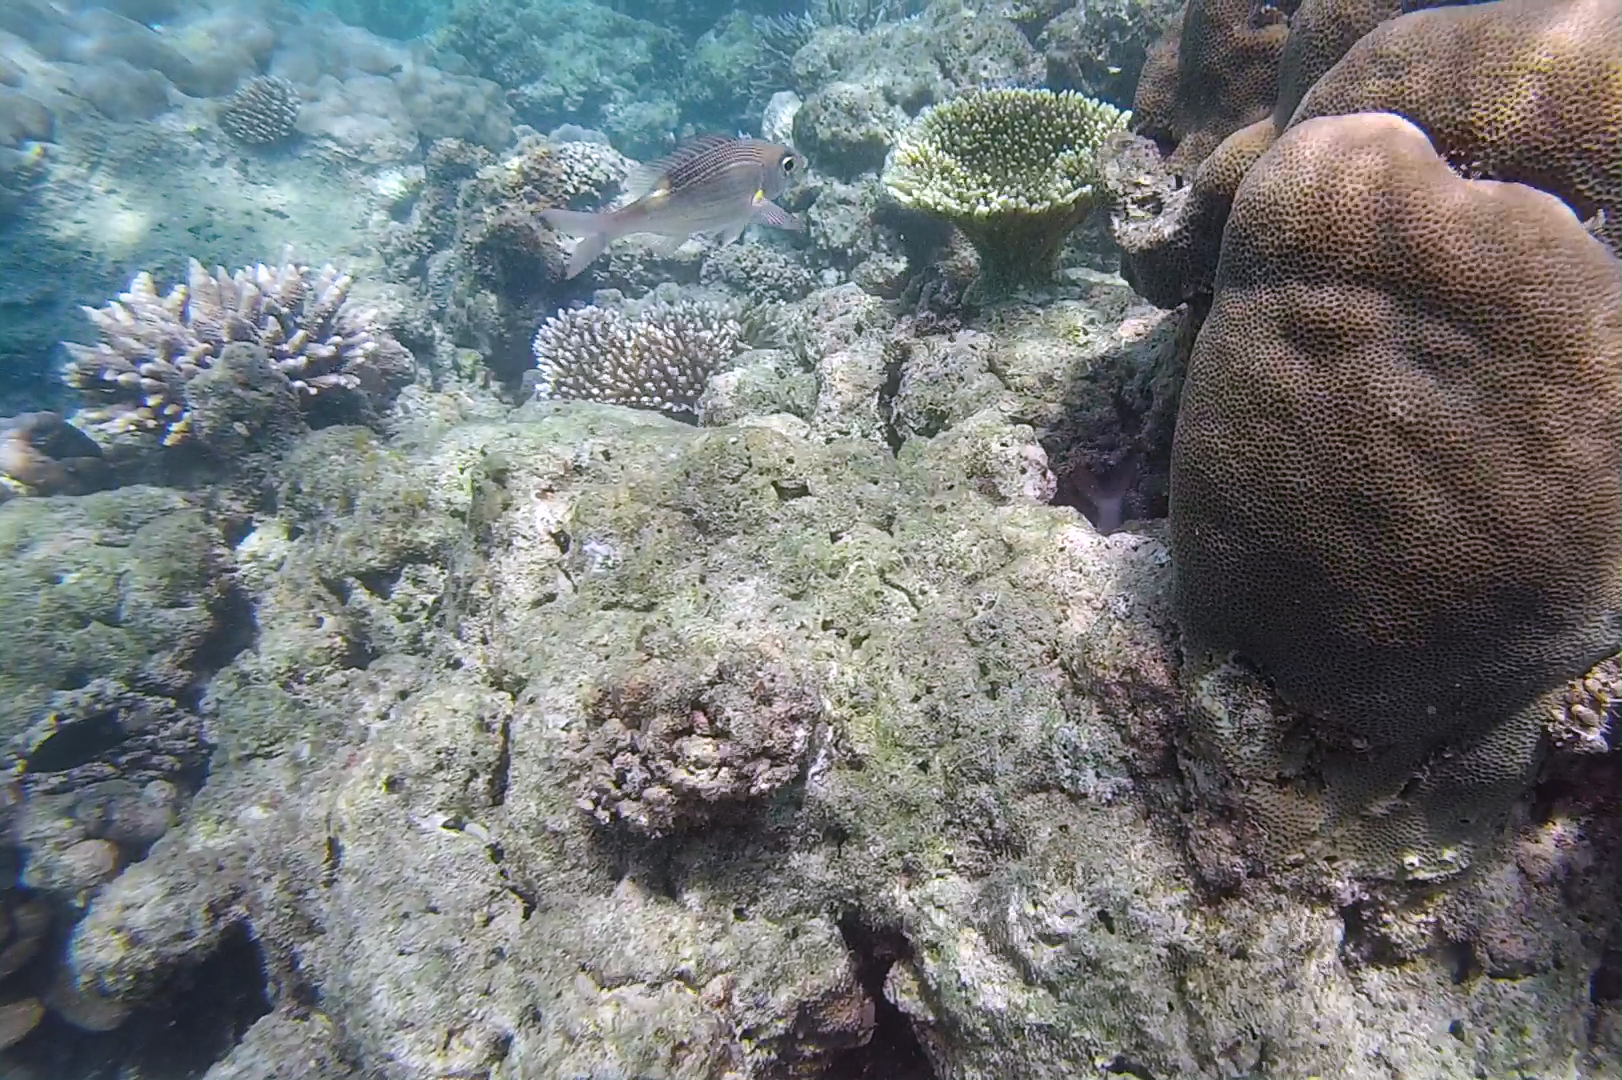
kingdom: Animalia
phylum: Chordata
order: Perciformes
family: Lethrinidae
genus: Gnathodentex
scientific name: Gnathodentex aureolineatus
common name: Gold-lined sea bream
